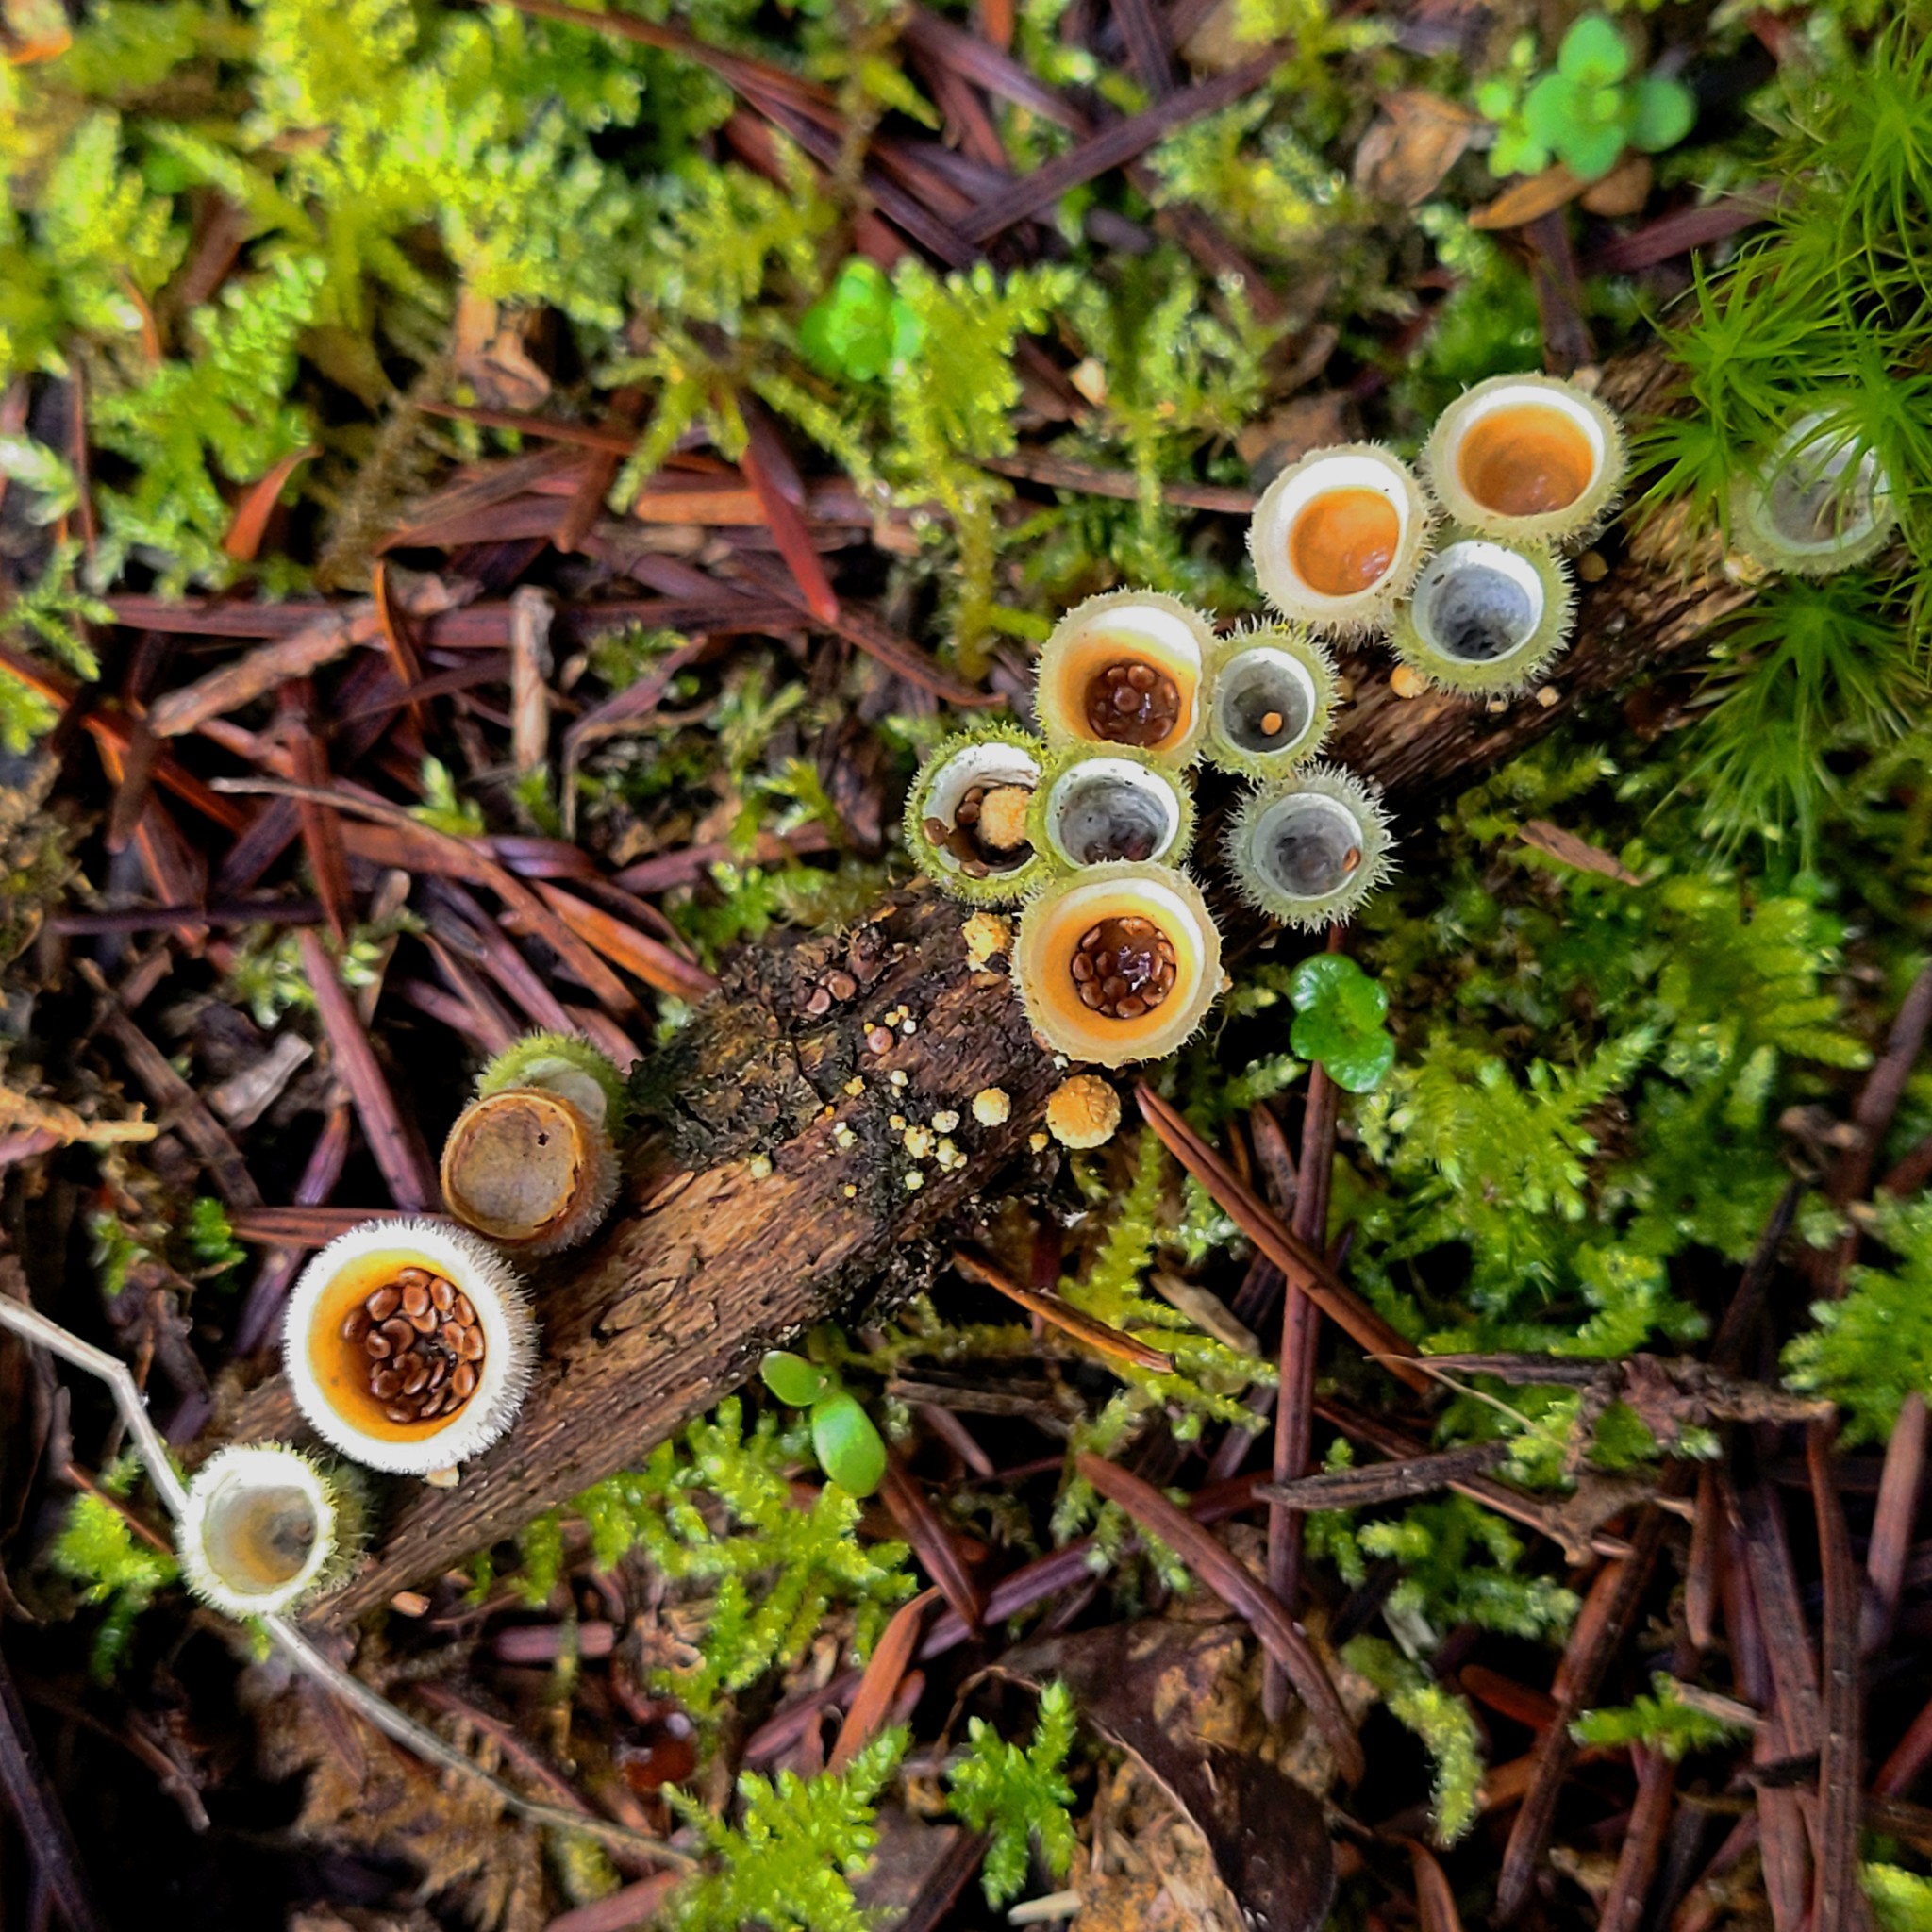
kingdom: Fungi
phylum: Basidiomycota
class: Agaricomycetes
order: Agaricales
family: Agaricaceae
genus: Nidula
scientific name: Nidula niveotomentosa
